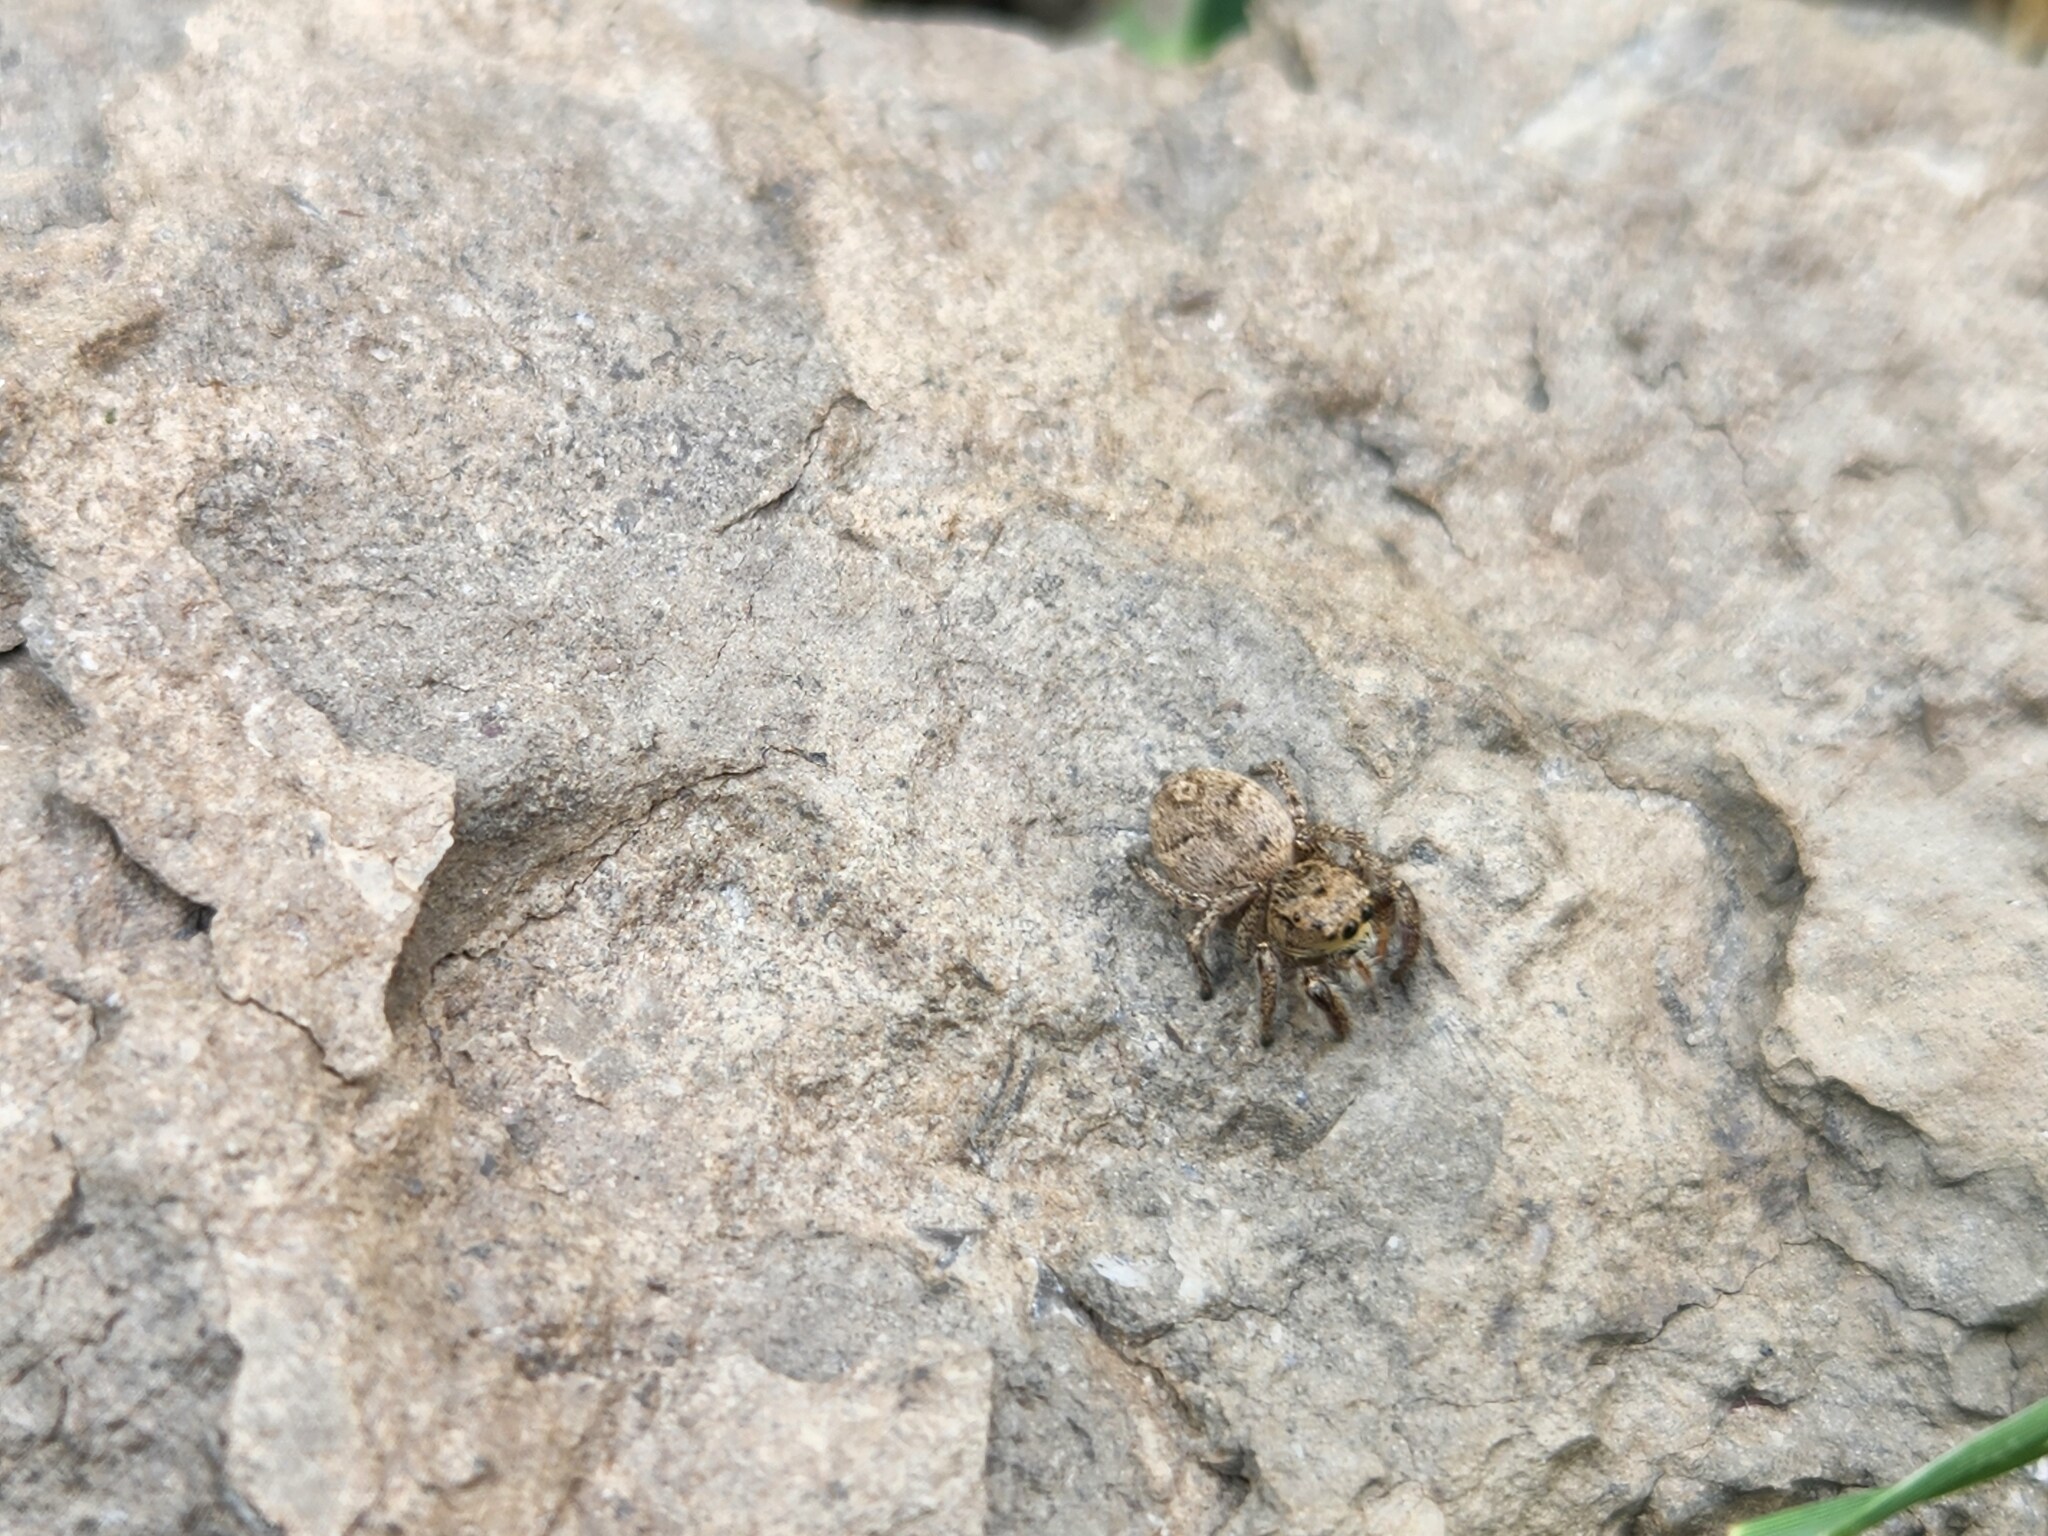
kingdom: Animalia
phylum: Arthropoda
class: Arachnida
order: Araneae
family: Salticidae
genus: Habronattus
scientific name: Habronattus coecatus
